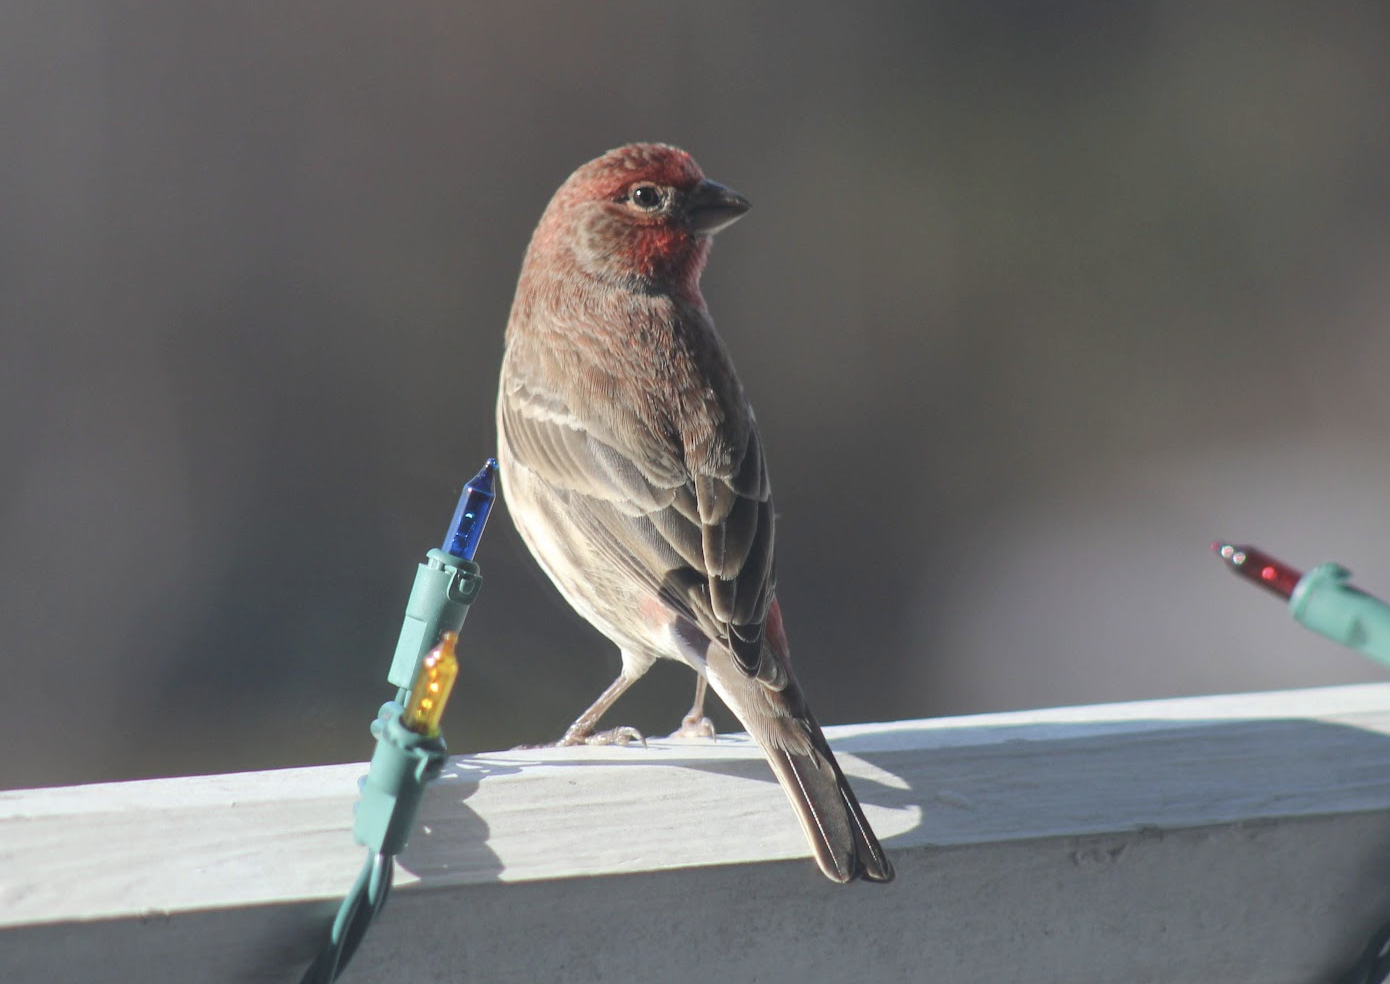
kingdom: Animalia
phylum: Chordata
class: Aves
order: Passeriformes
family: Fringillidae
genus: Haemorhous
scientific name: Haemorhous mexicanus
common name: House finch
